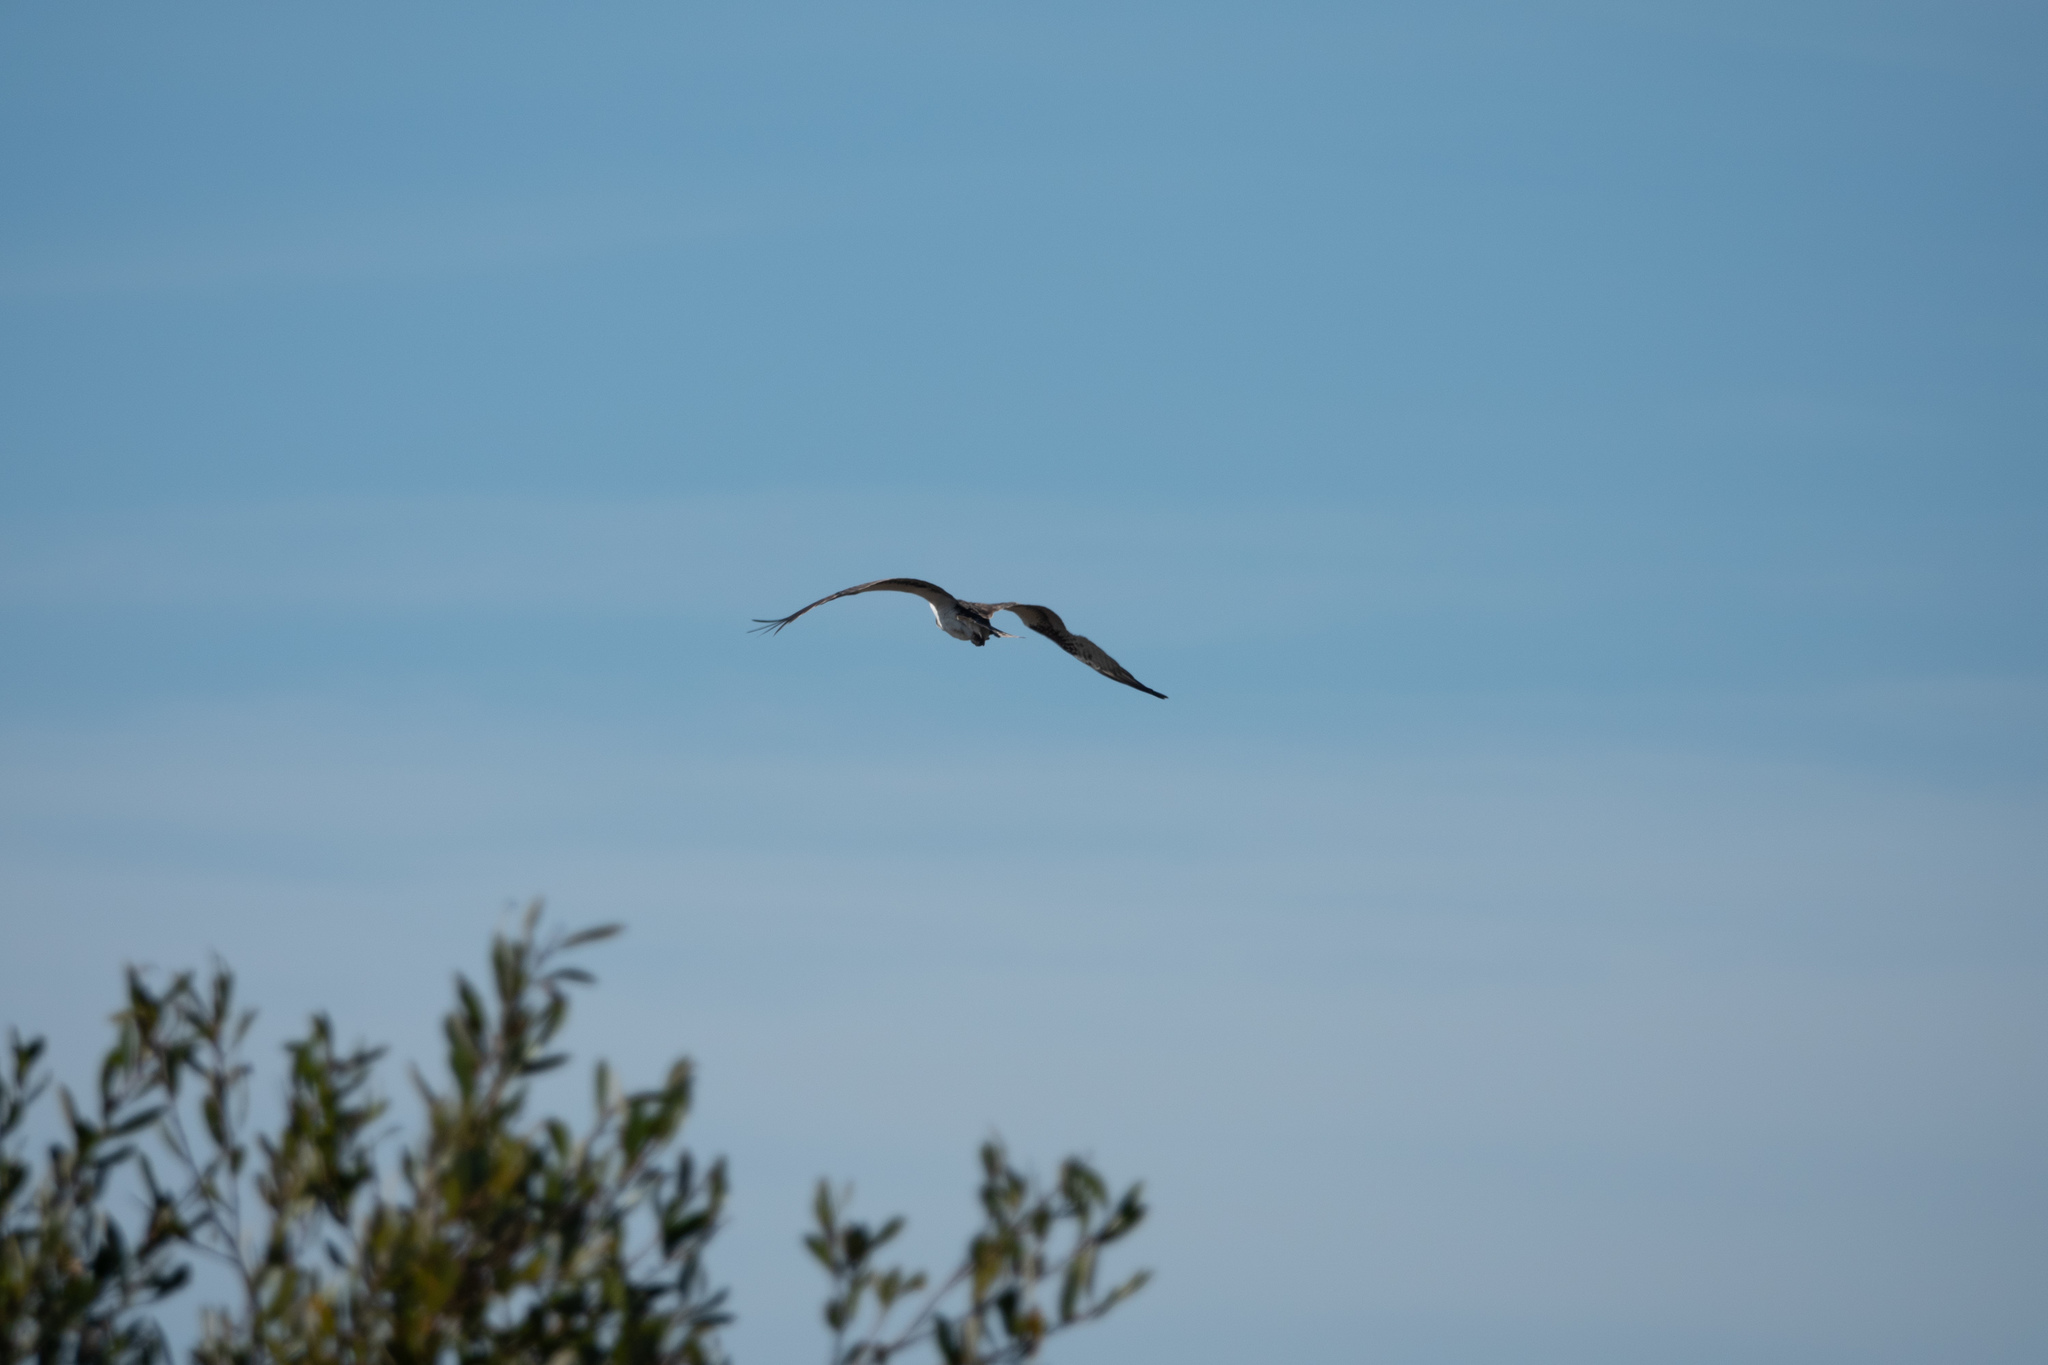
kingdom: Animalia
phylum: Chordata
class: Aves
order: Accipitriformes
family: Pandionidae
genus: Pandion
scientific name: Pandion haliaetus
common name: Osprey
